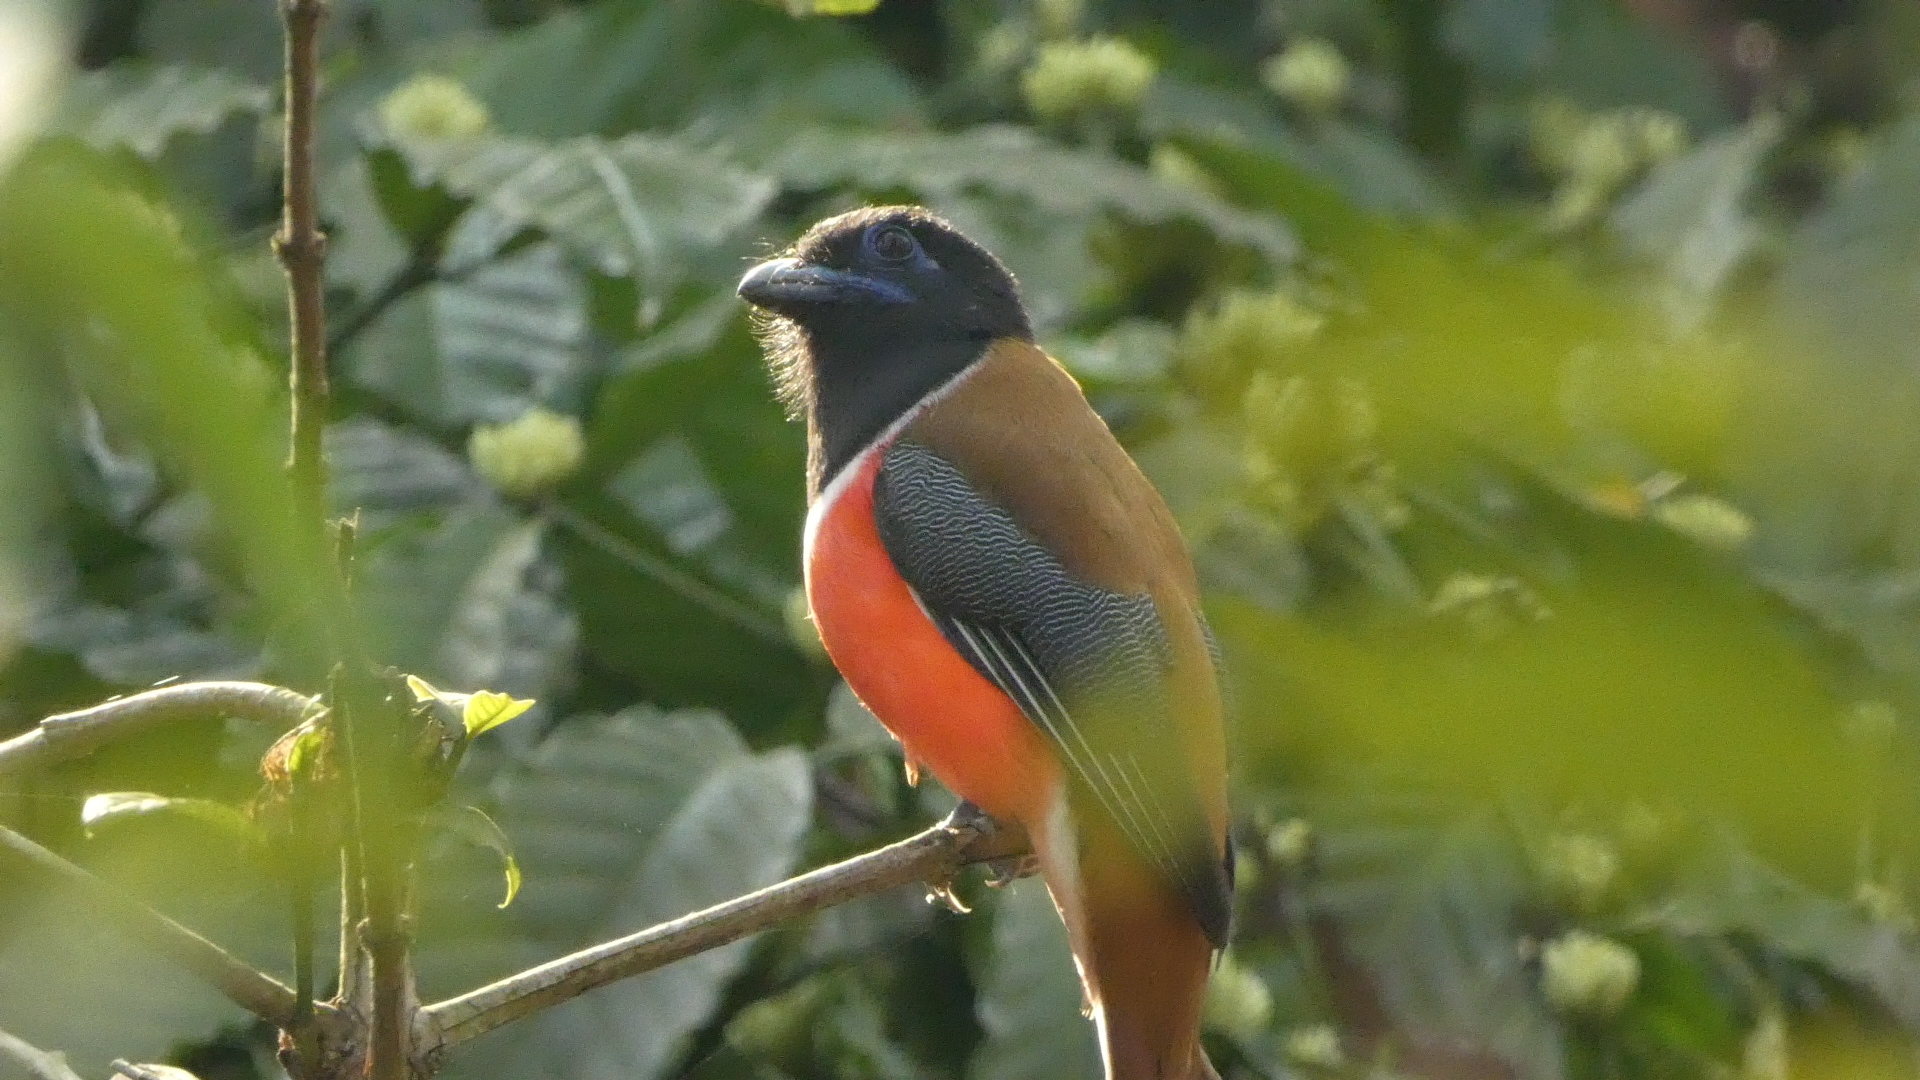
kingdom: Animalia
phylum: Chordata
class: Aves
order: Trogoniformes
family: Trogonidae
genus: Harpactes
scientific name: Harpactes fasciatus
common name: Malabar trogon
